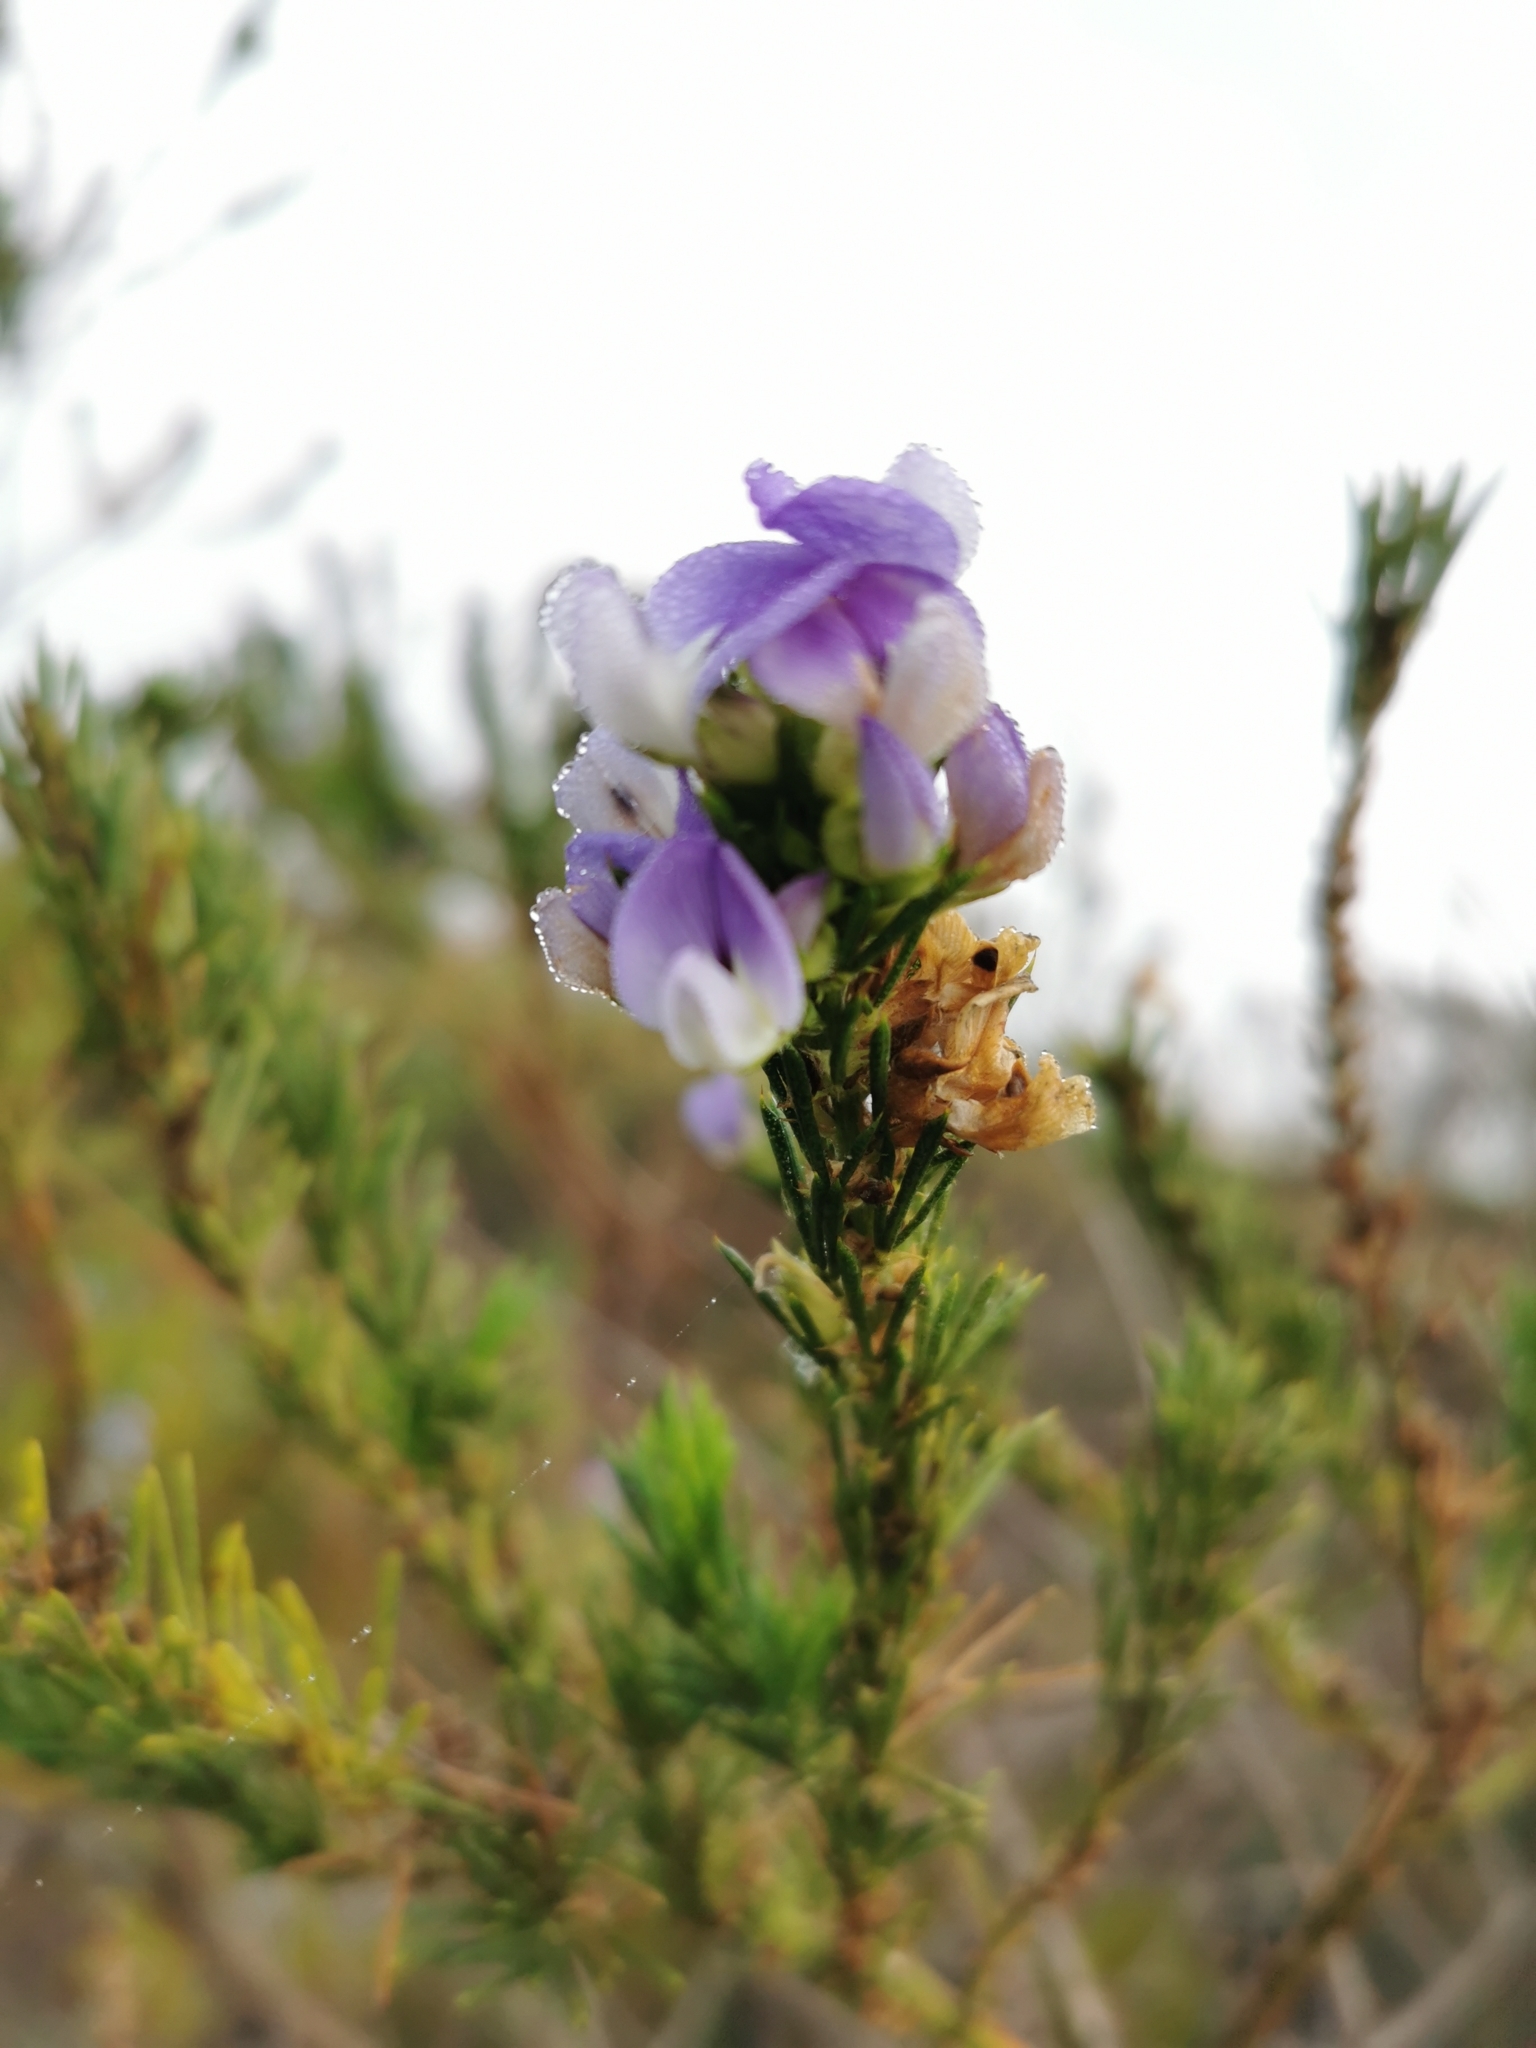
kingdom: Plantae
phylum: Tracheophyta
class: Magnoliopsida
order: Fabales
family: Fabaceae
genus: Psoralea
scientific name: Psoralea pinnata
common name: African scurfpea
